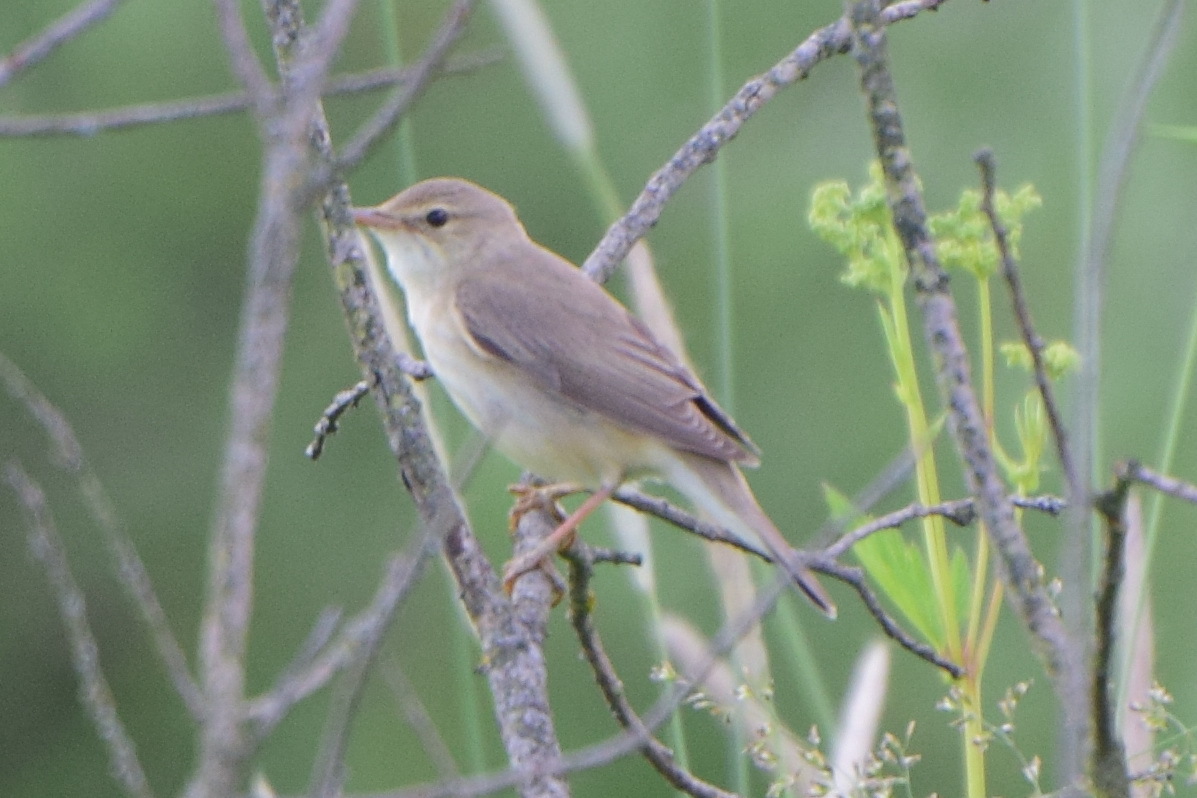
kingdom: Animalia
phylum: Chordata
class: Aves
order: Passeriformes
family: Acrocephalidae
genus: Acrocephalus
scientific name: Acrocephalus palustris
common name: Marsh warbler
